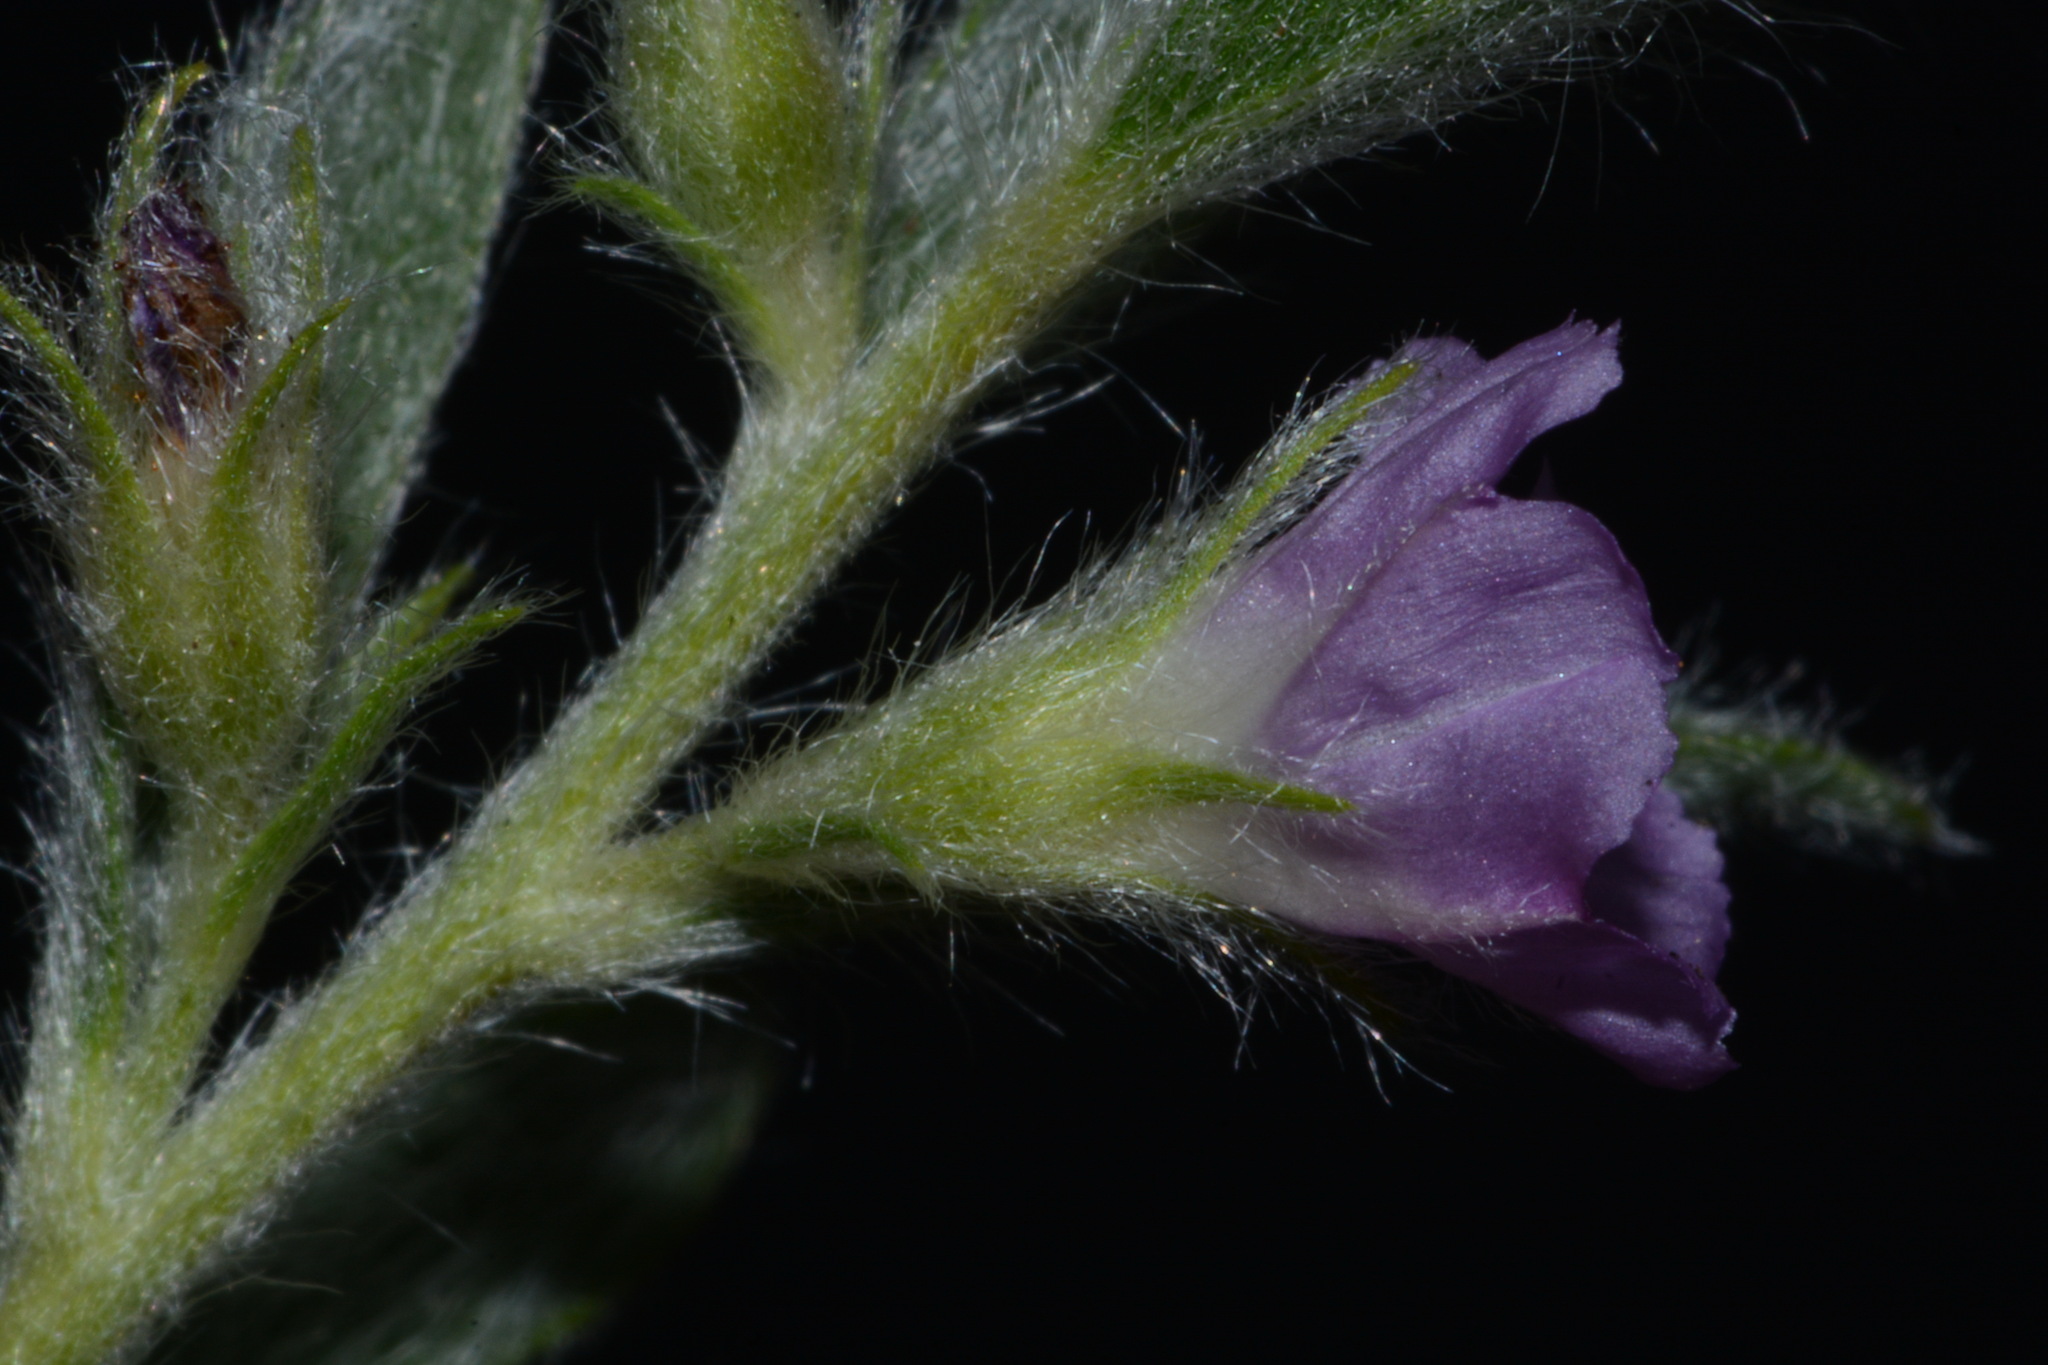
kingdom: Plantae
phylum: Tracheophyta
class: Magnoliopsida
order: Solanales
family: Convolvulaceae
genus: Evolvulus
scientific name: Evolvulus nuttallianus
